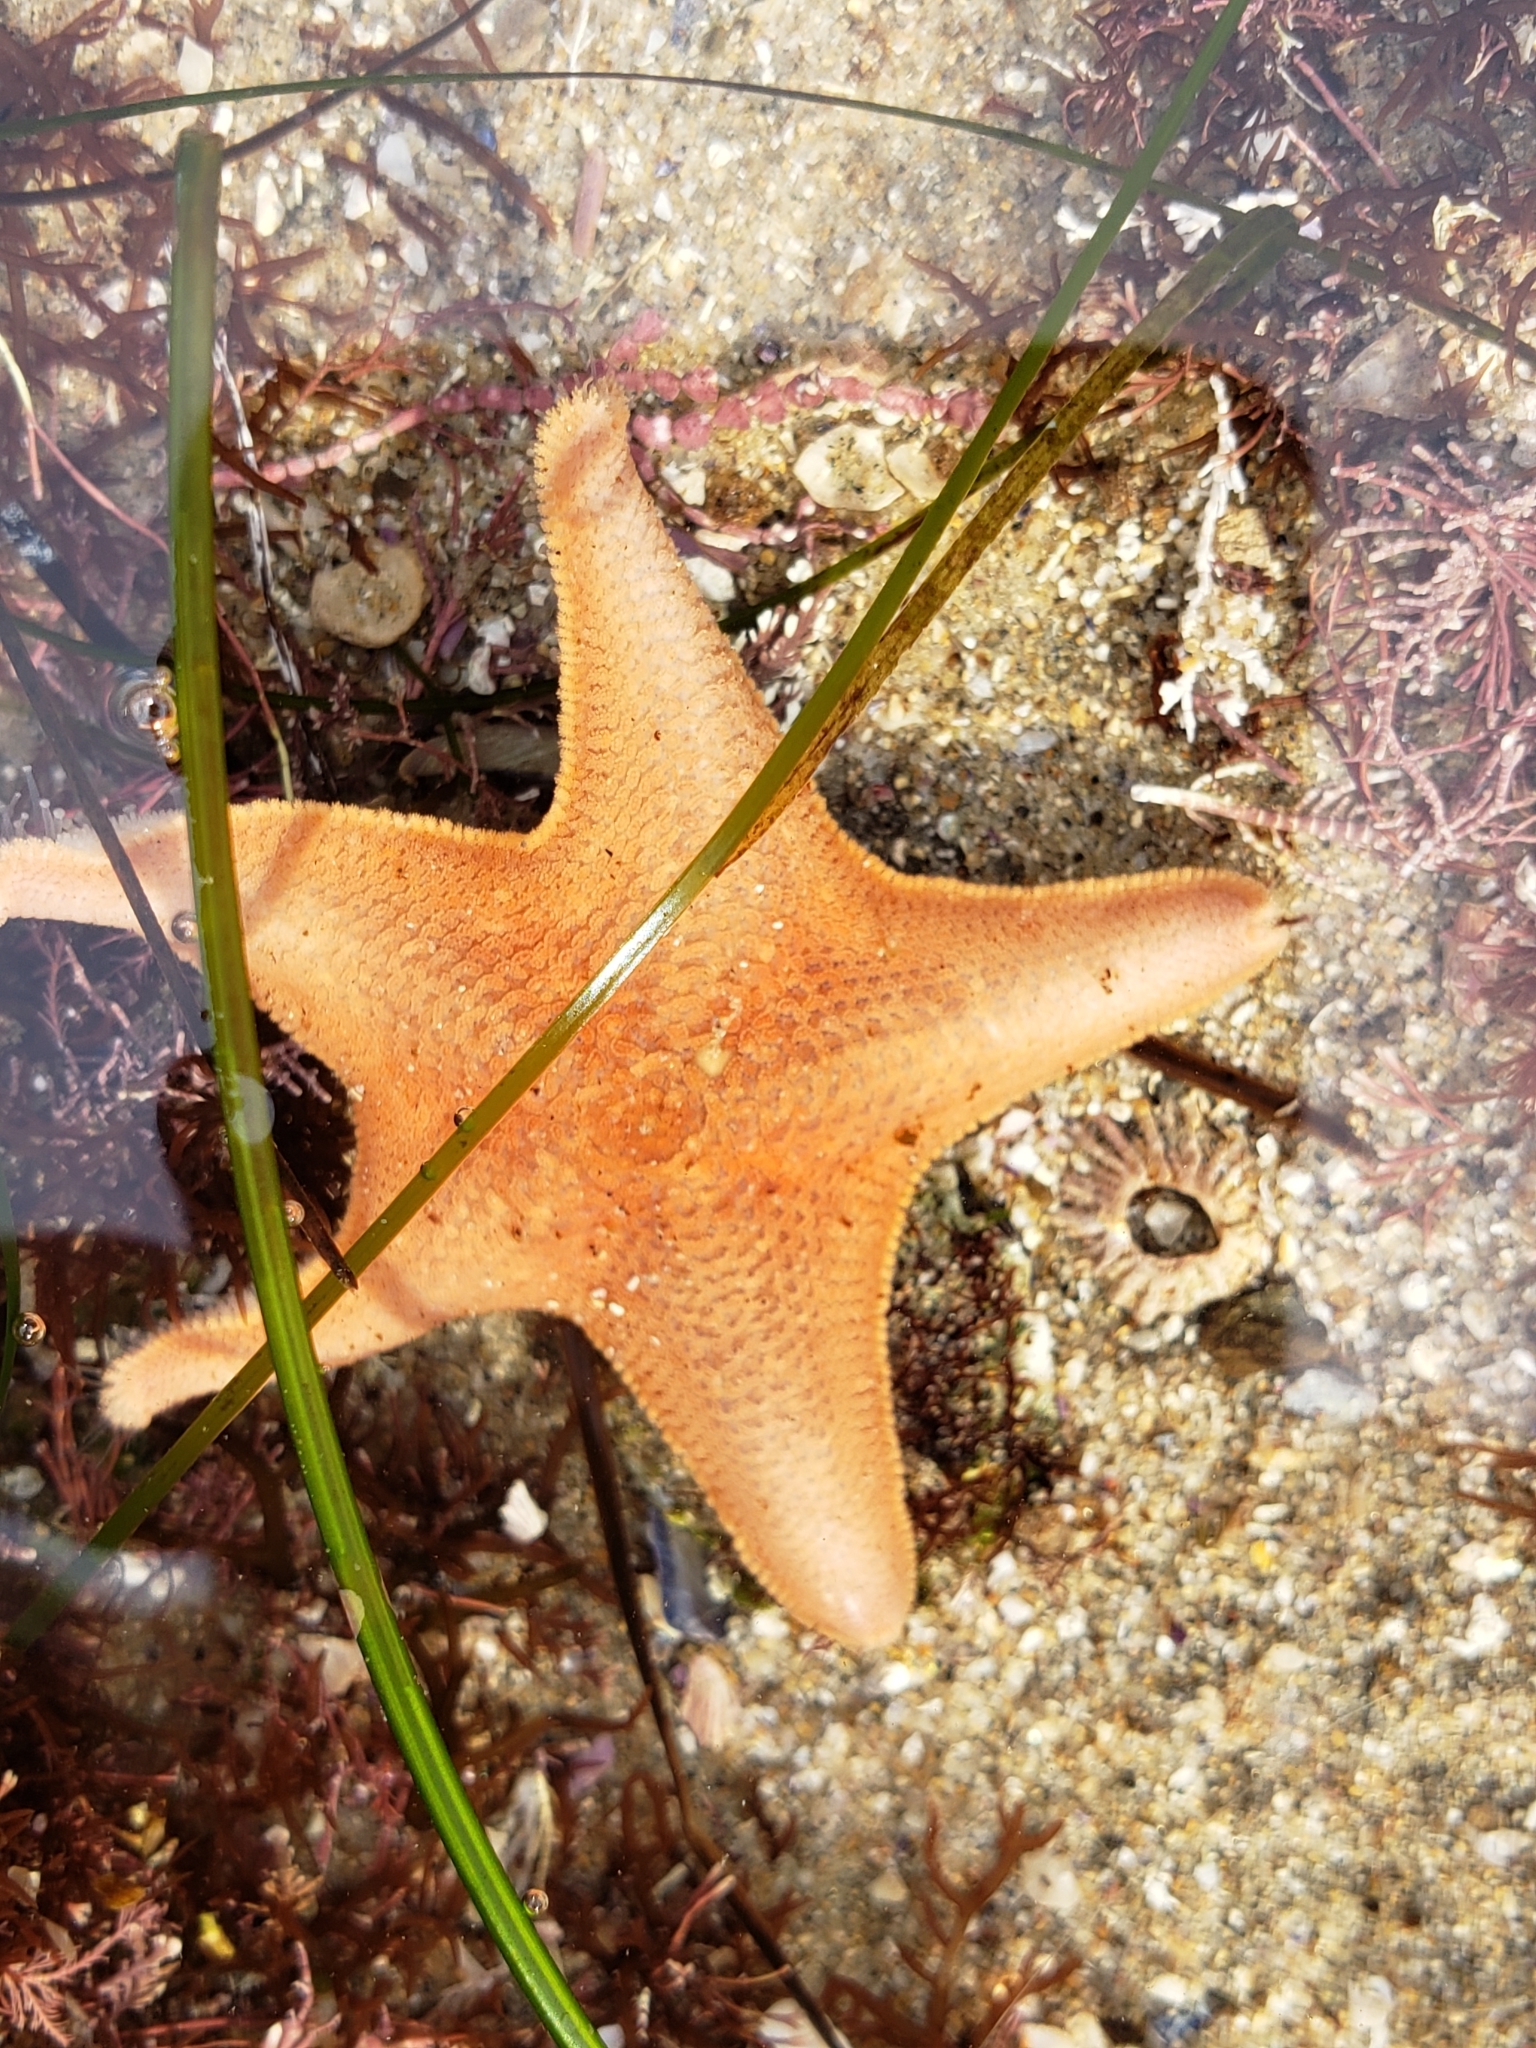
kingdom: Animalia
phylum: Echinodermata
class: Asteroidea
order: Valvatida
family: Asterinidae
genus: Patiria
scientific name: Patiria miniata
